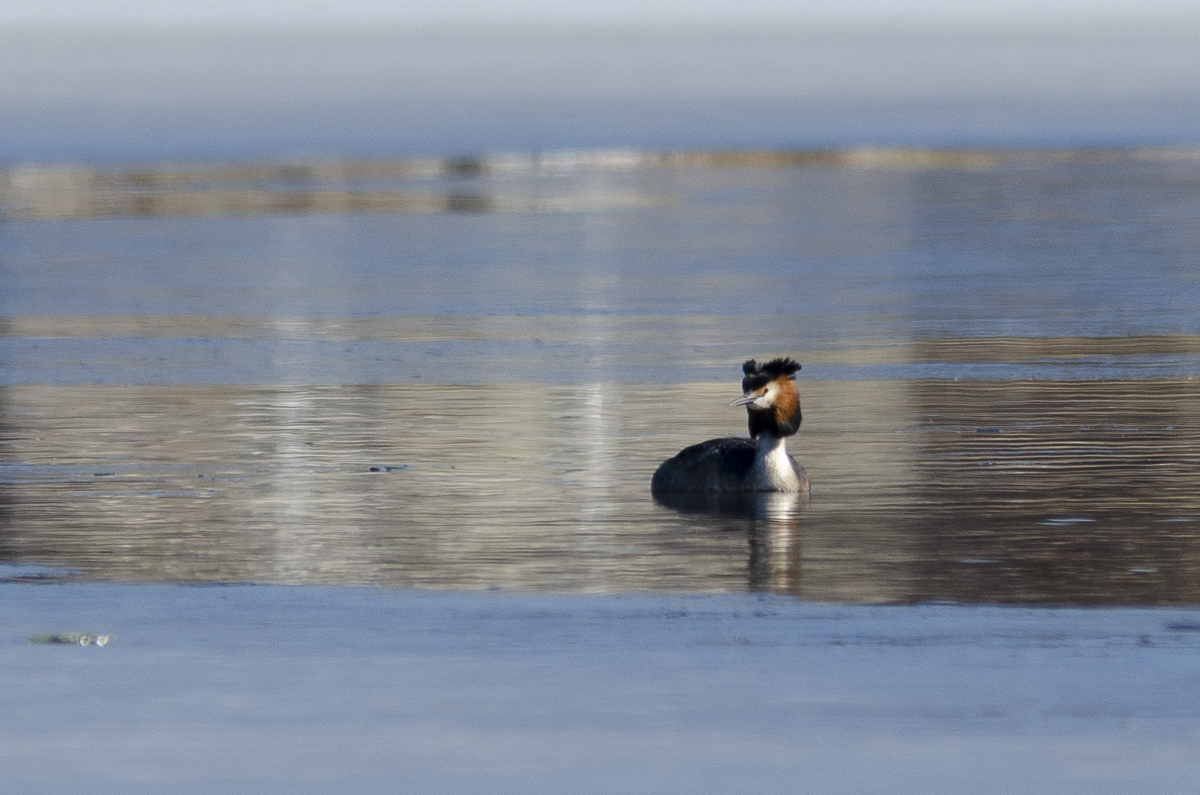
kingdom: Animalia
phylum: Chordata
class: Aves
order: Podicipediformes
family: Podicipedidae
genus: Podiceps
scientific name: Podiceps cristatus
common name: Great crested grebe
